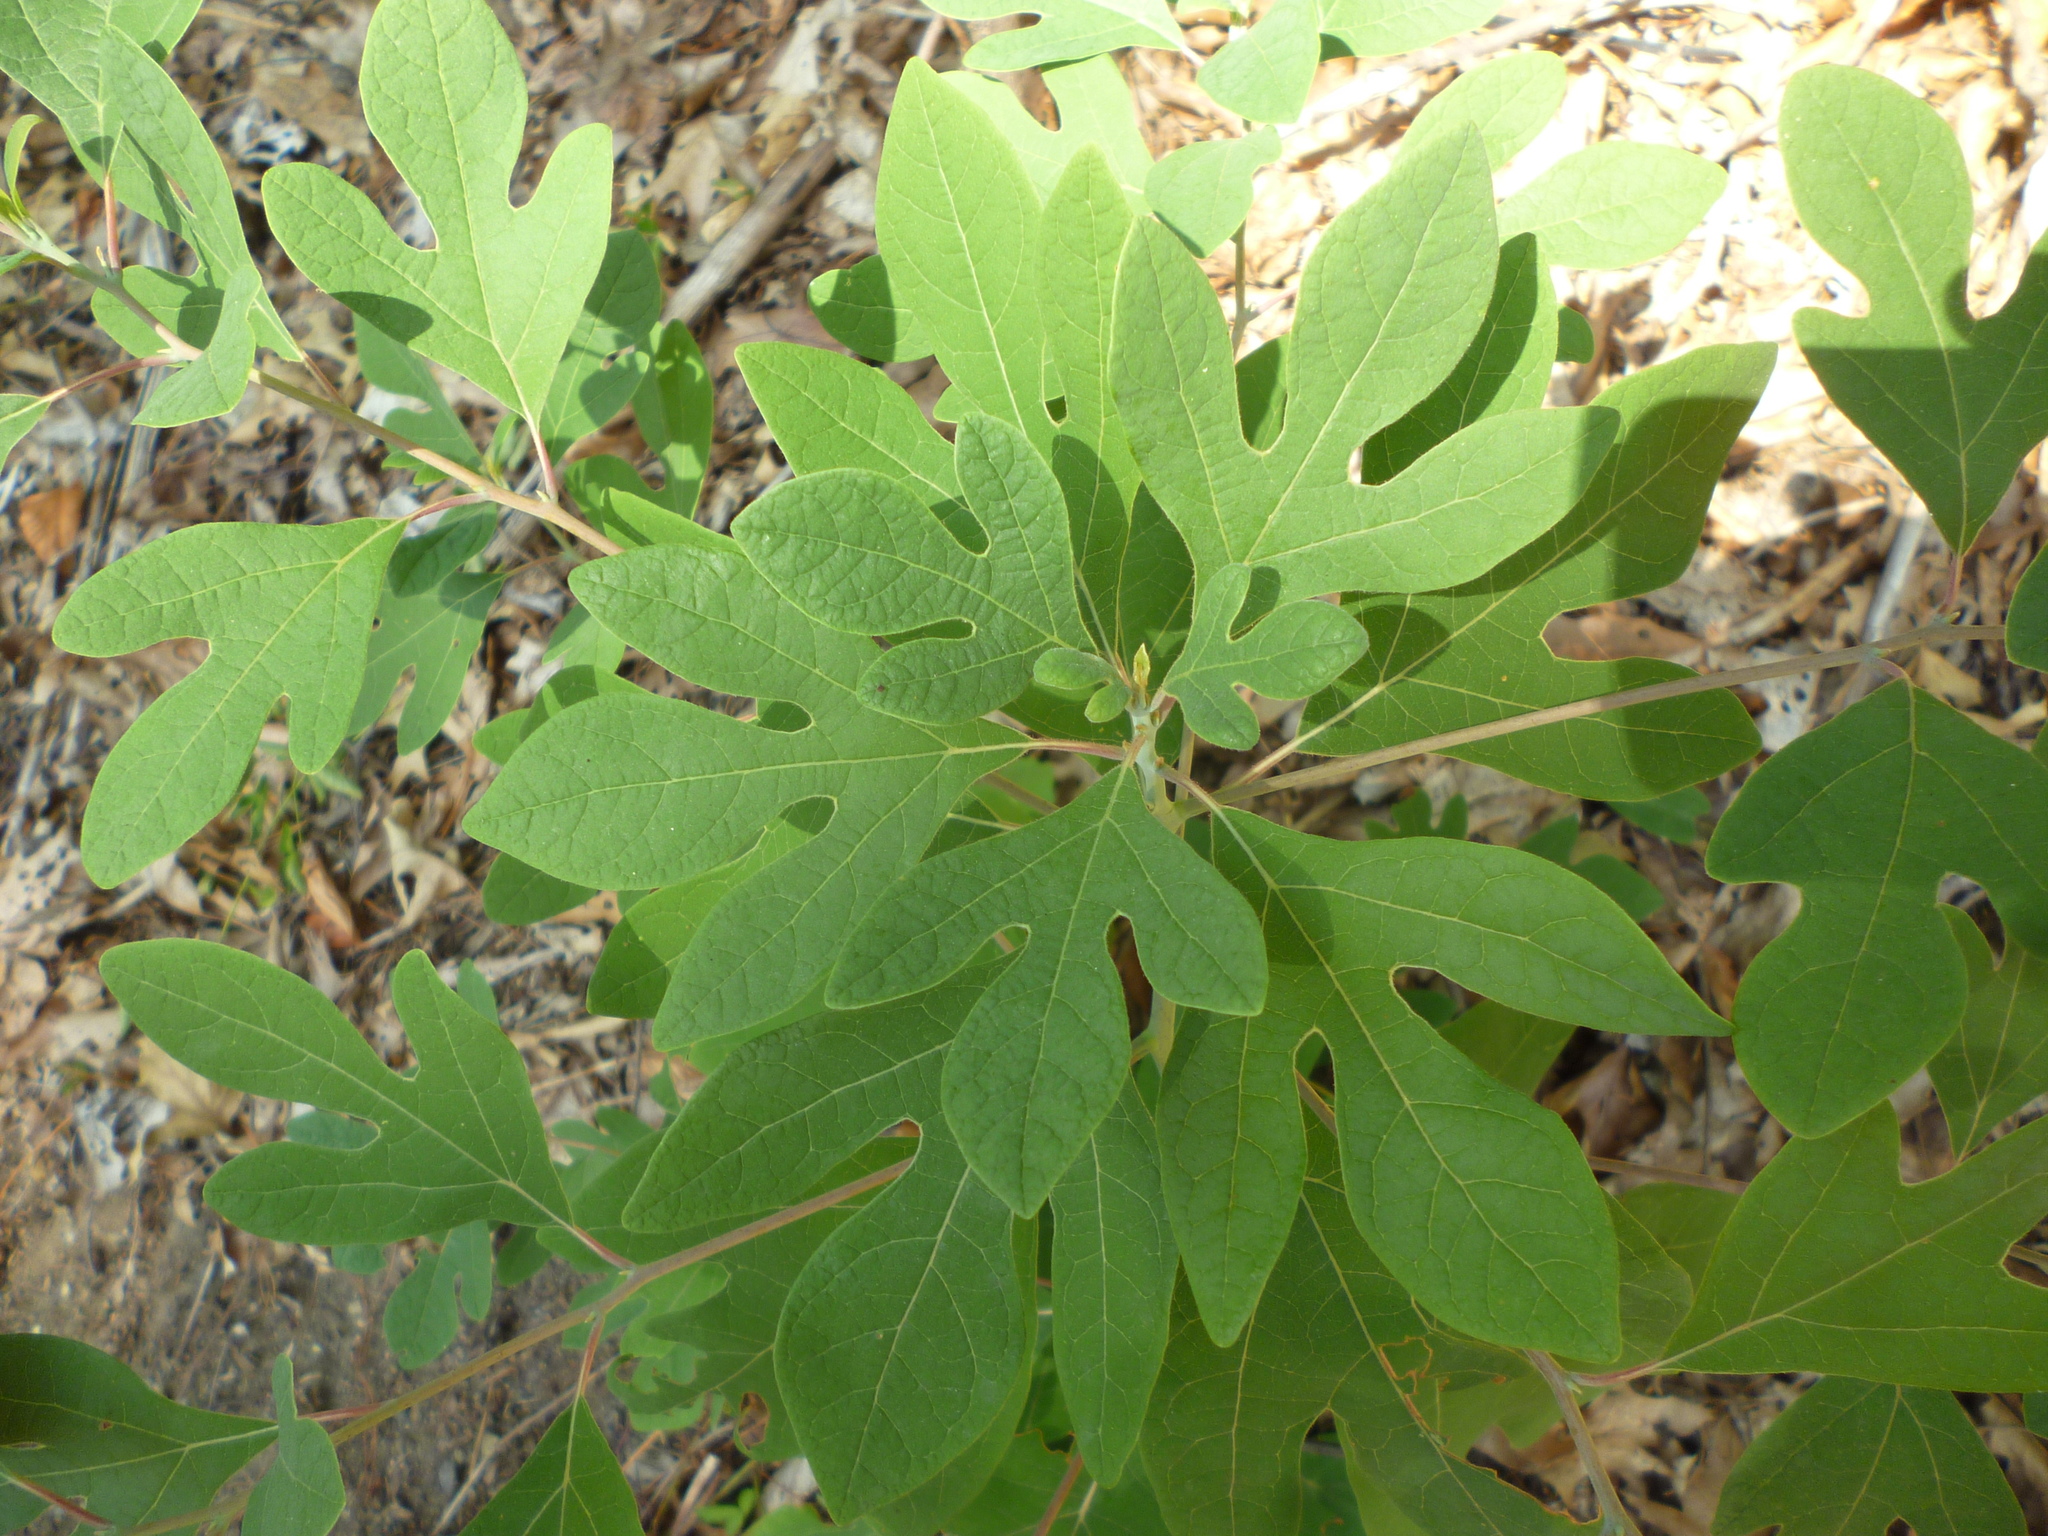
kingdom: Plantae
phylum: Tracheophyta
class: Magnoliopsida
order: Laurales
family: Lauraceae
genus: Sassafras
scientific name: Sassafras albidum
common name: Sassafras
